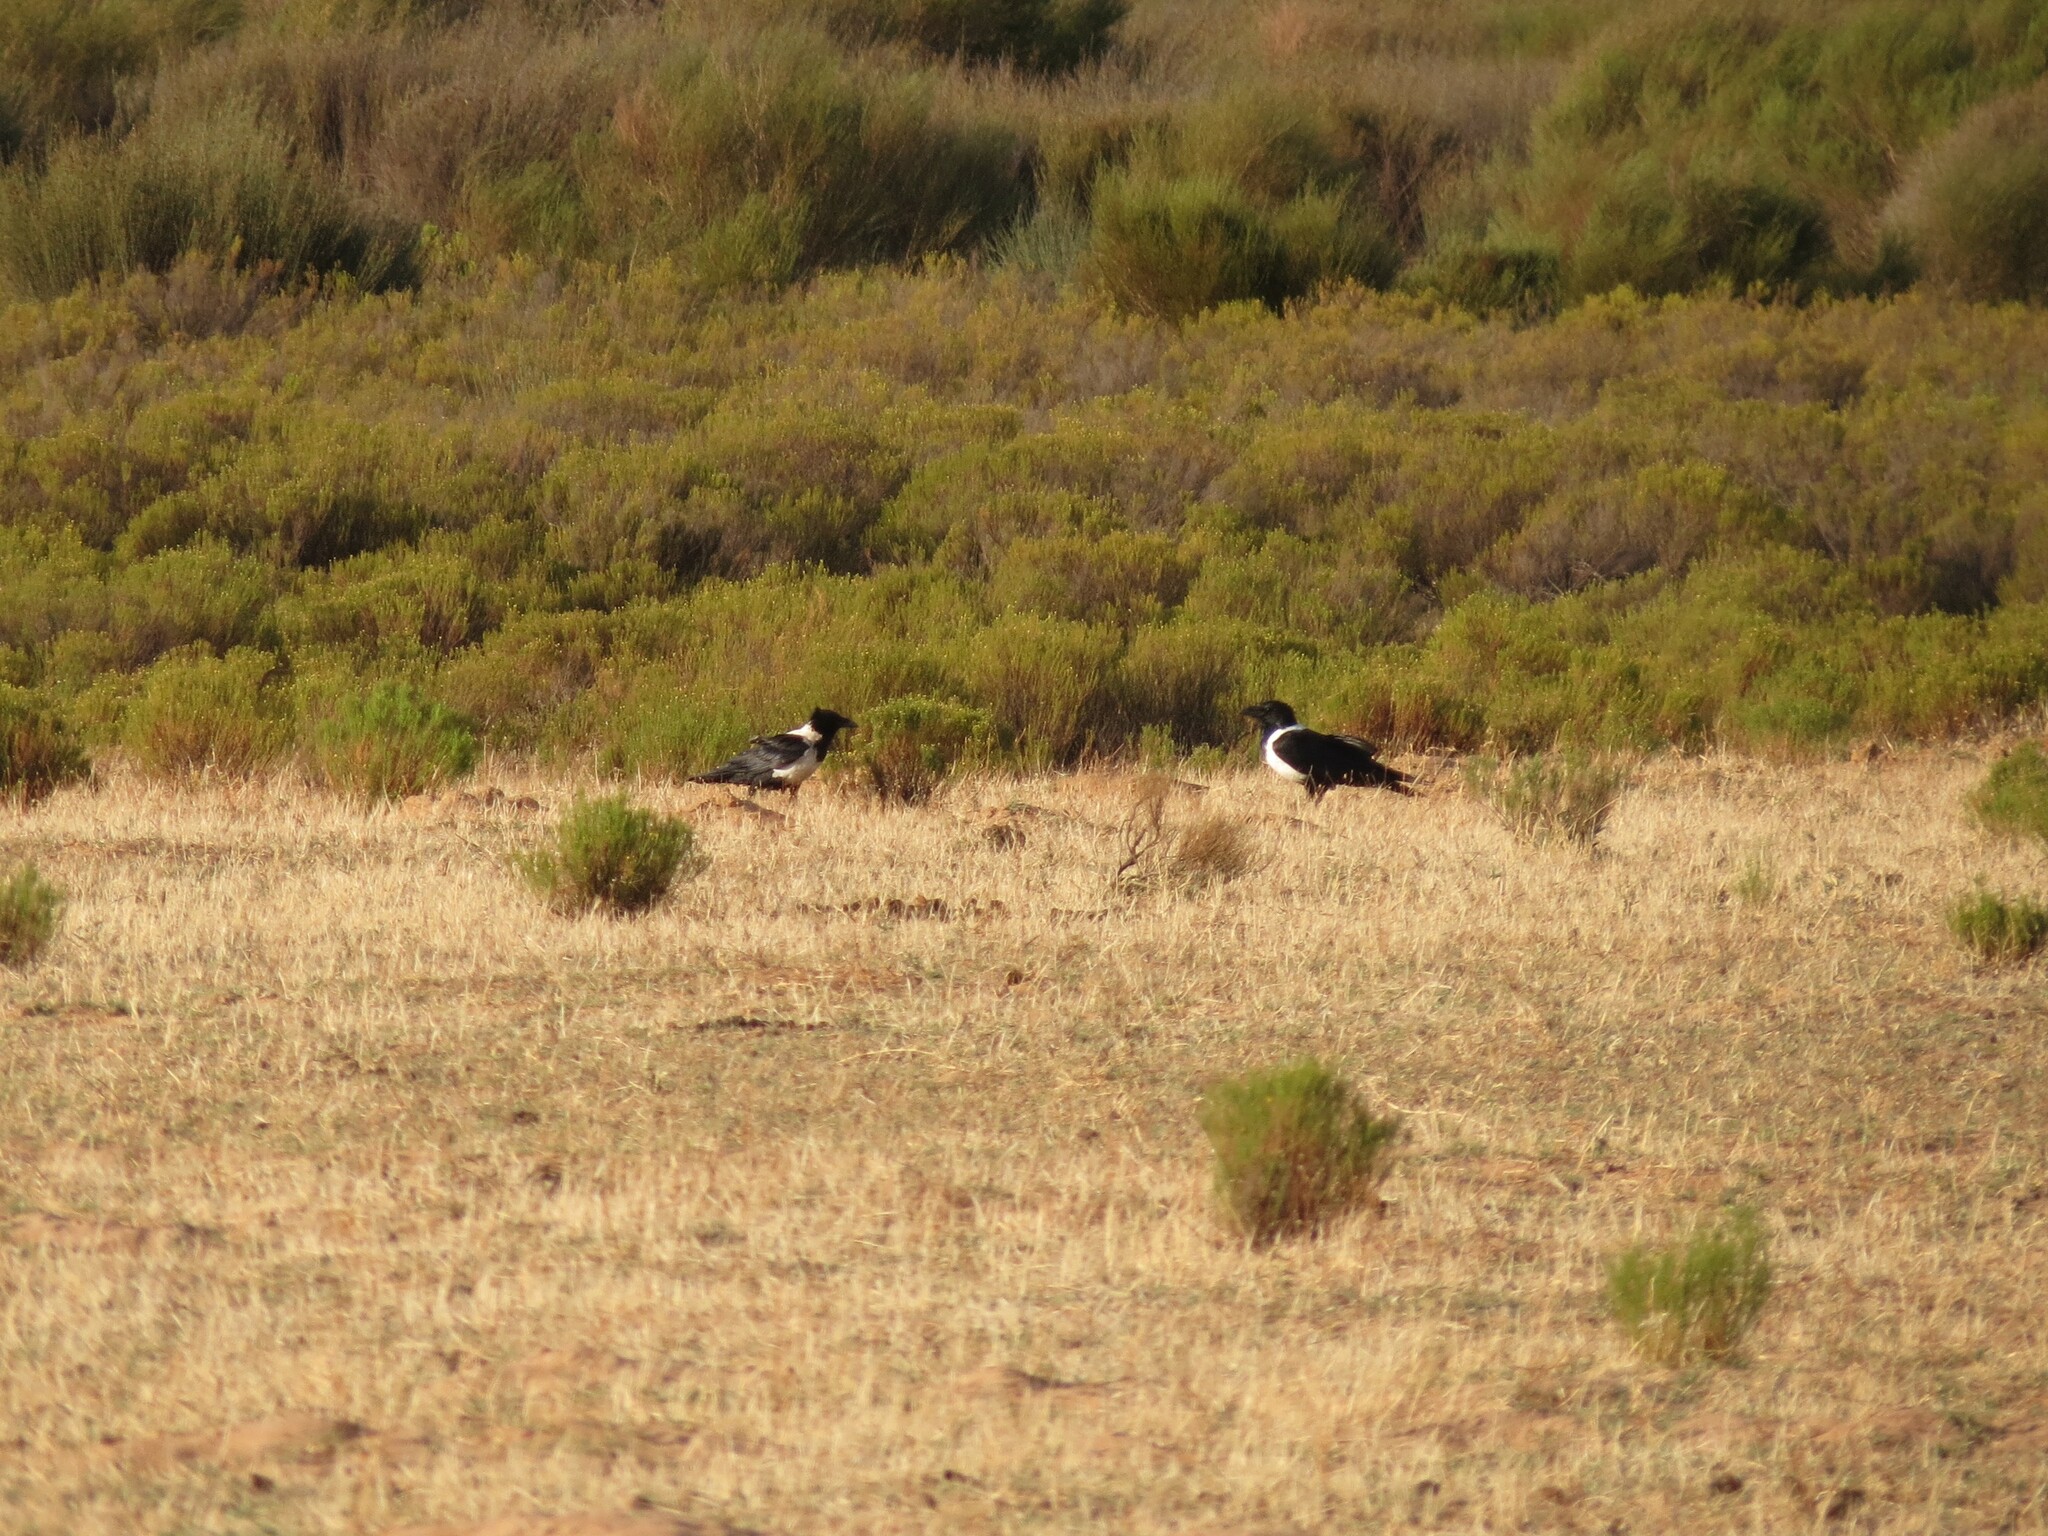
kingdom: Animalia
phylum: Chordata
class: Aves
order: Passeriformes
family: Corvidae
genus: Corvus
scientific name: Corvus albus
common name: Pied crow
